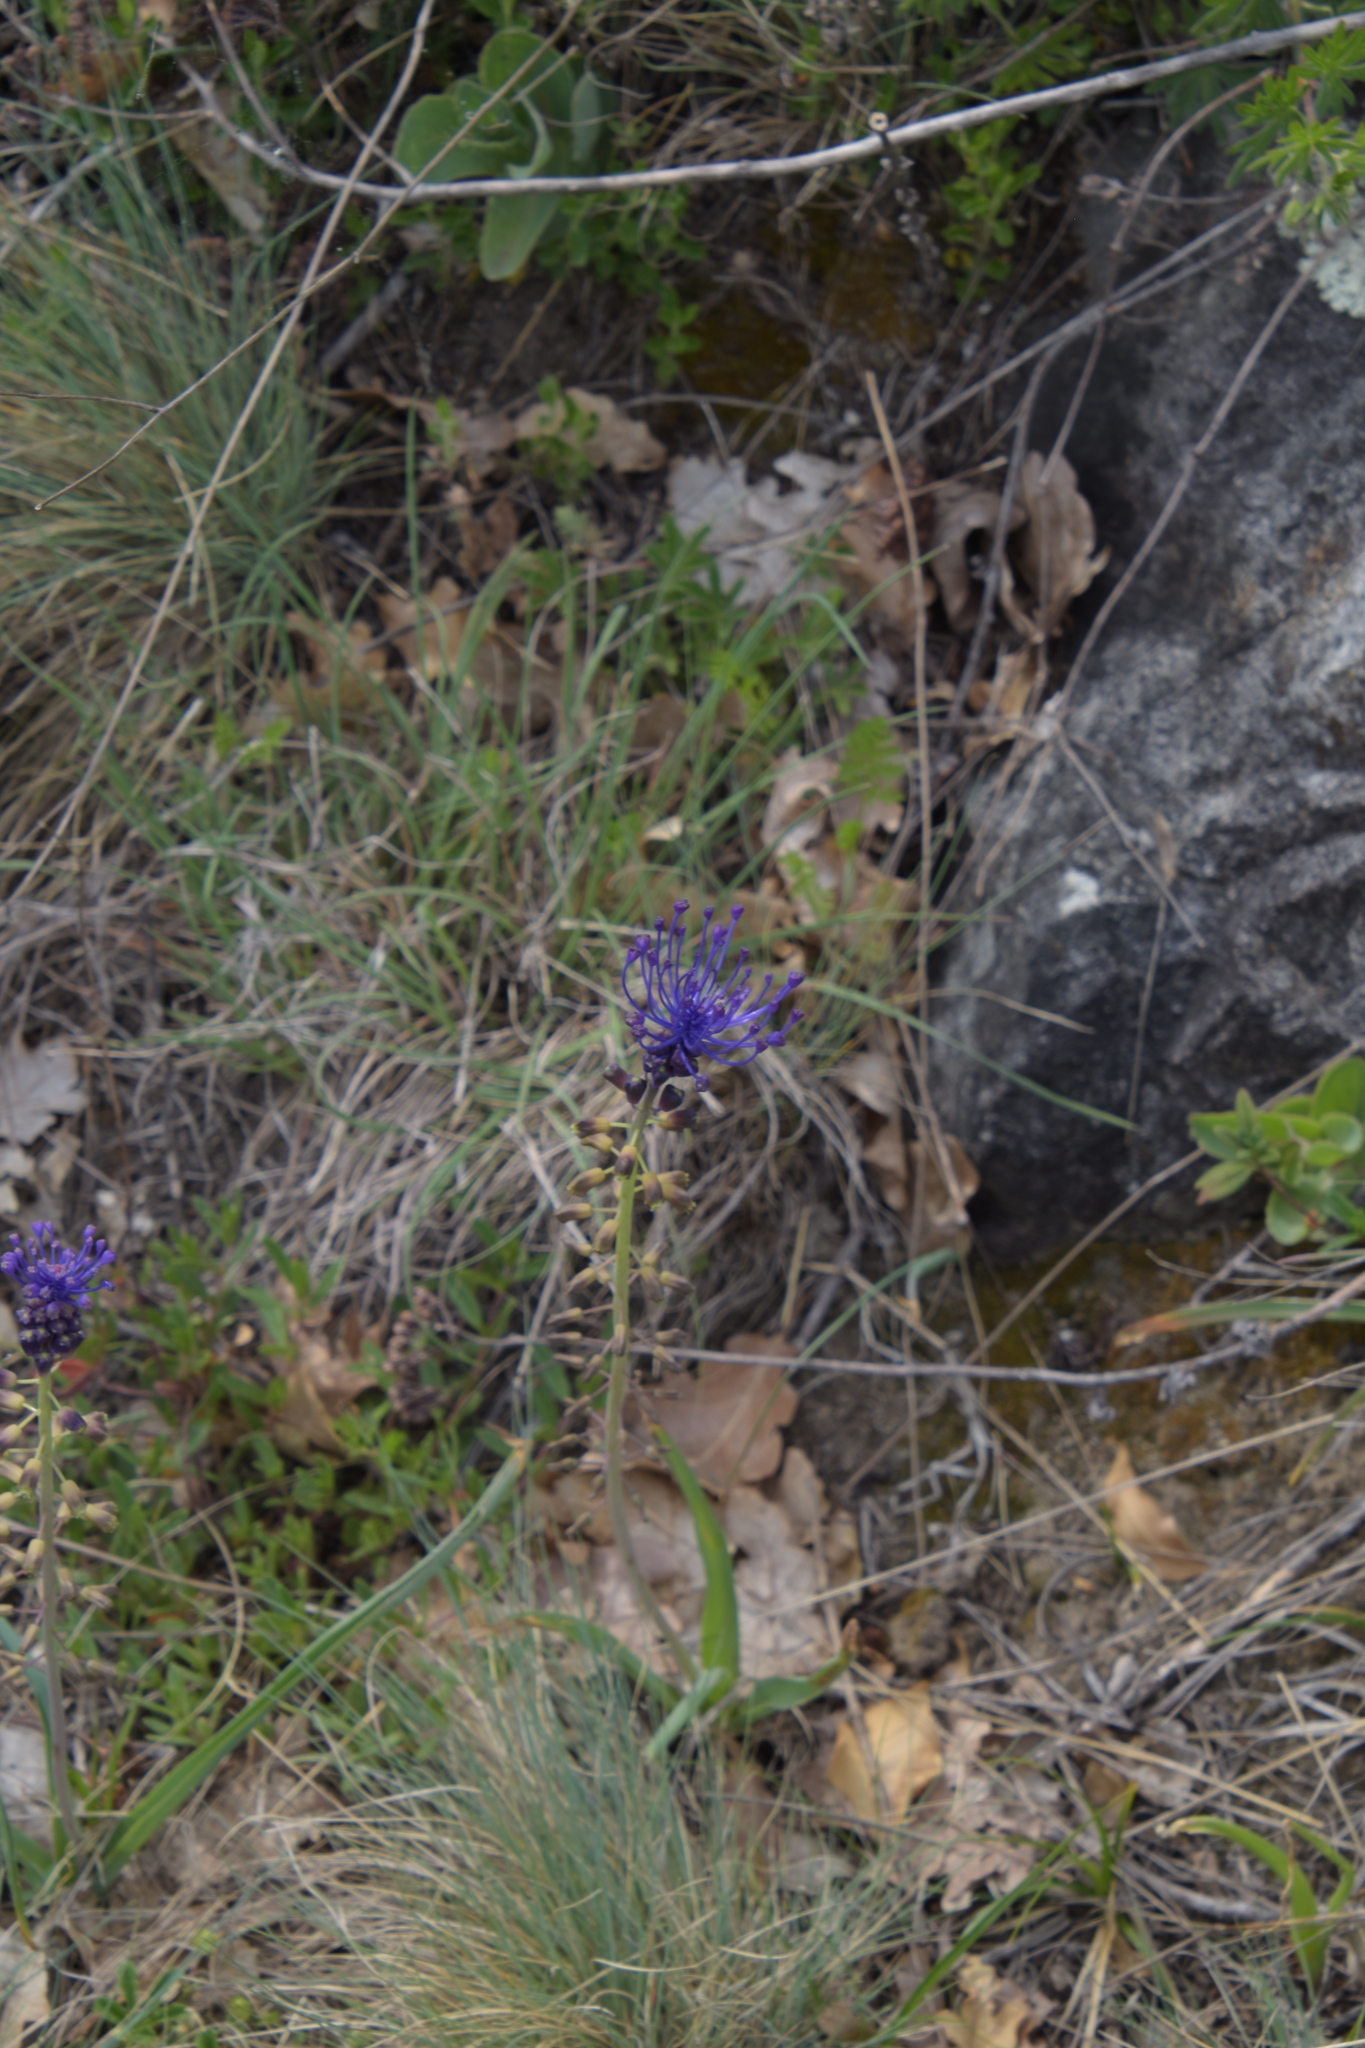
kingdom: Plantae
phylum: Tracheophyta
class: Liliopsida
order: Asparagales
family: Asparagaceae
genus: Muscari
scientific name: Muscari comosum
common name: Tassel hyacinth
